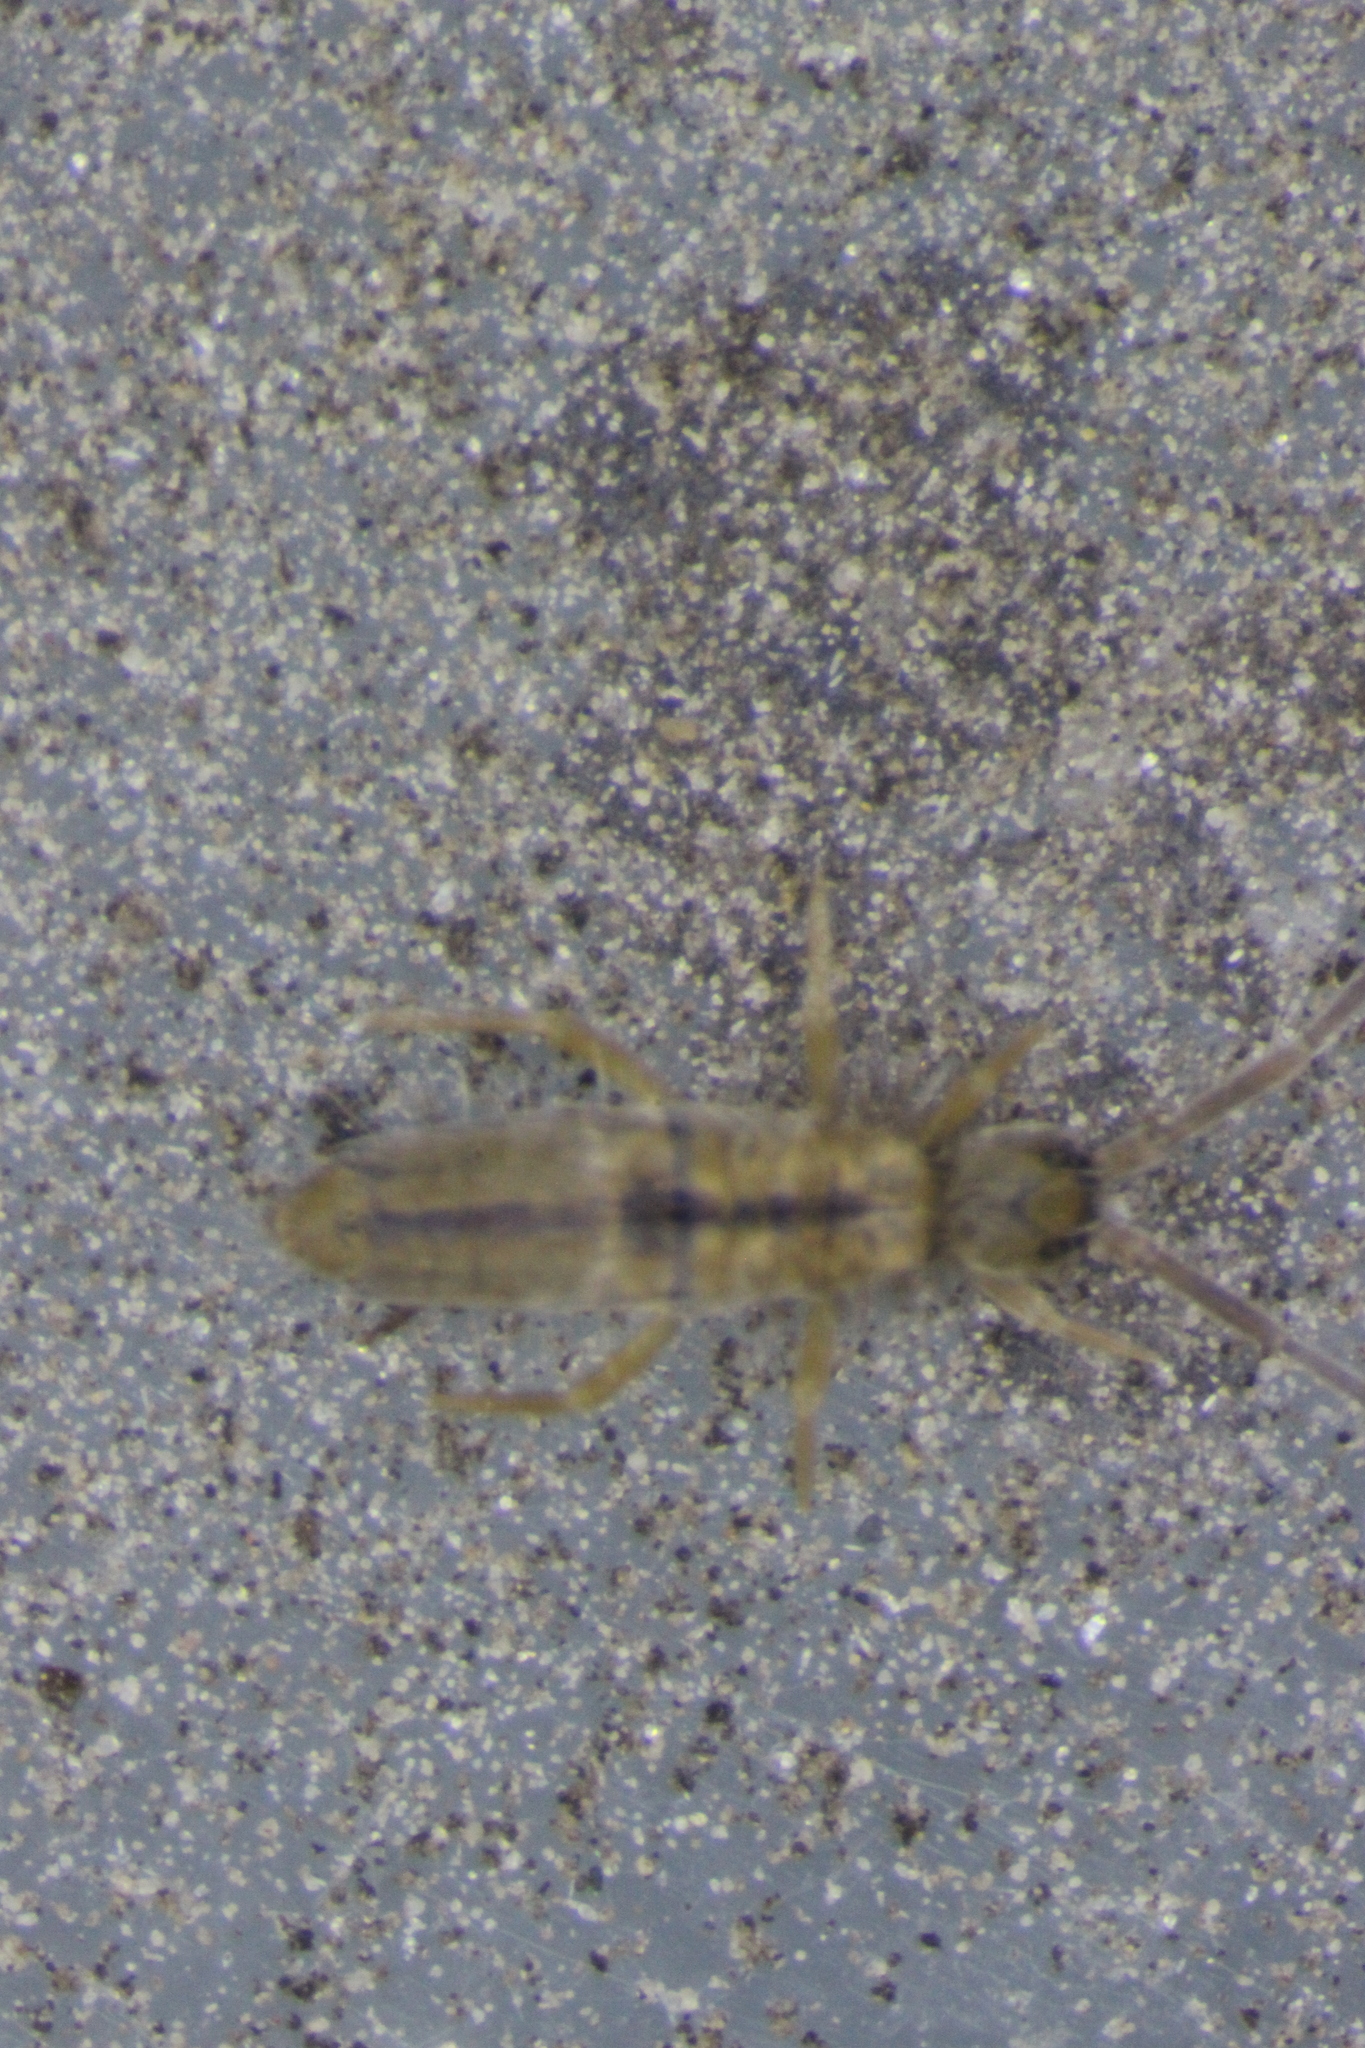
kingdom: Animalia
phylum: Arthropoda
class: Collembola
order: Entomobryomorpha
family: Entomobryidae
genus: Entomobrya
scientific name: Entomobrya unostrigata
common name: Springtail
